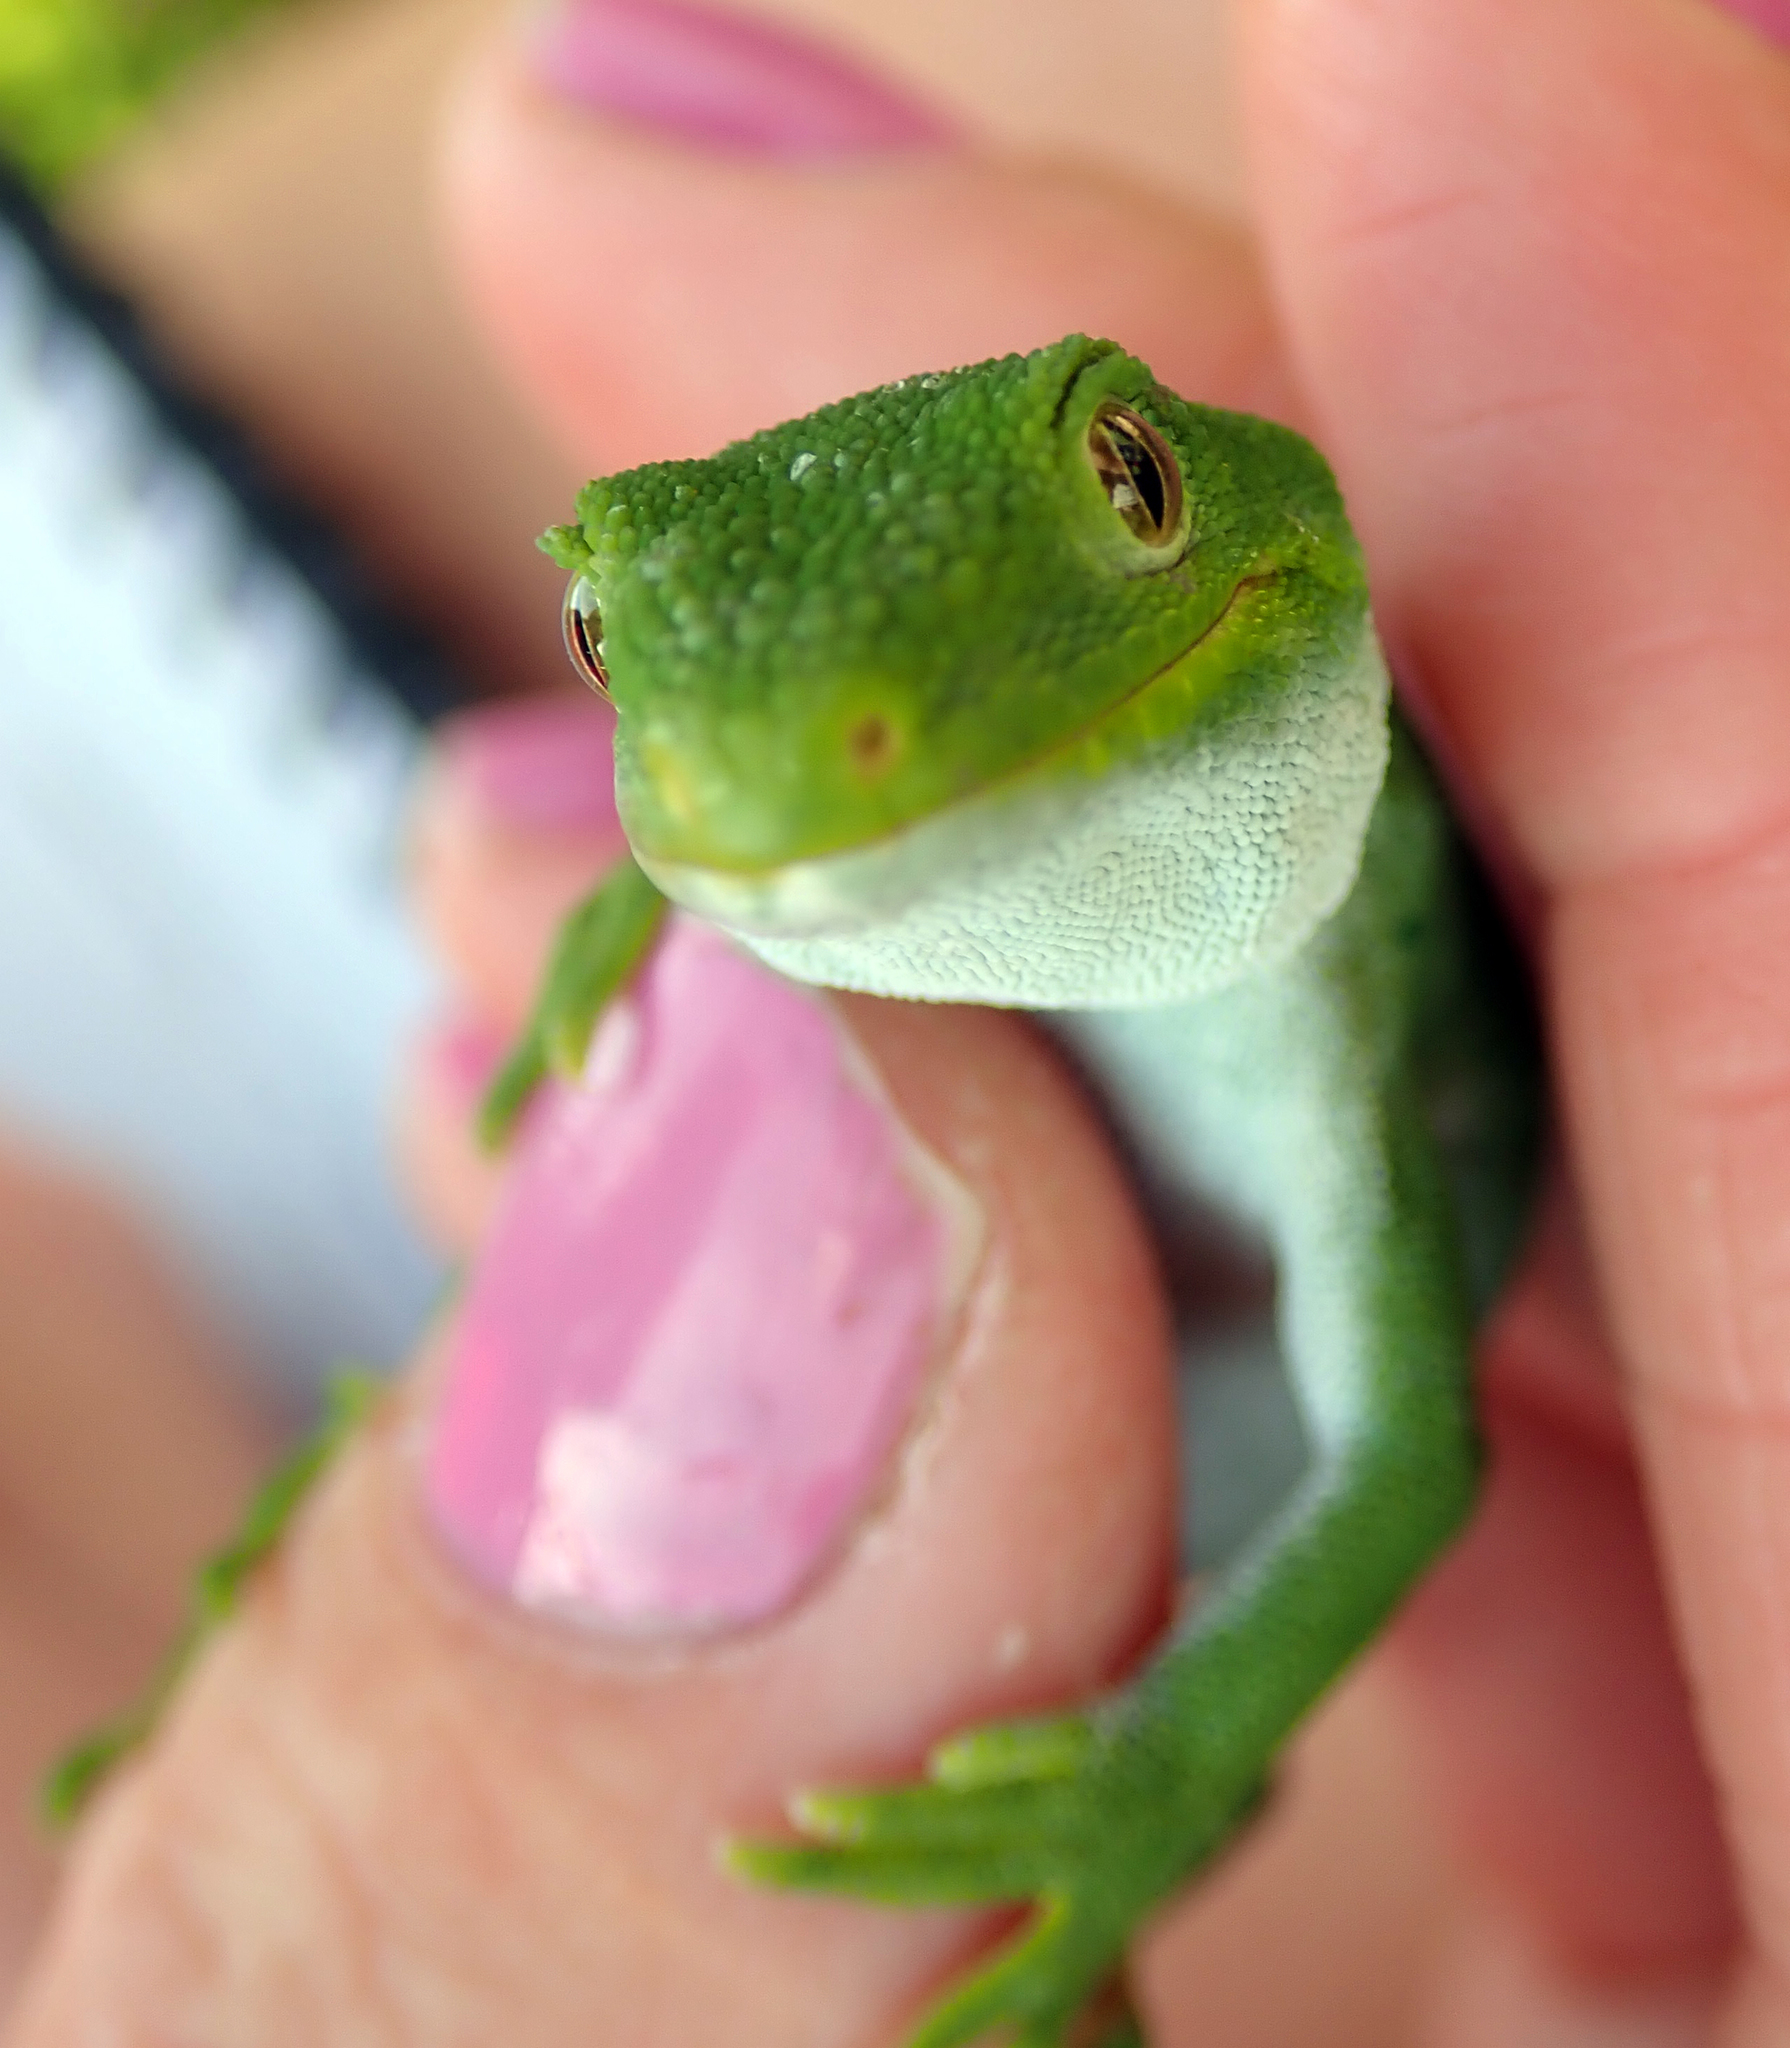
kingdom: Animalia
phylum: Chordata
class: Squamata
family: Diplodactylidae
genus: Naultinus
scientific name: Naultinus stellatus
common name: Nelson green gecko
